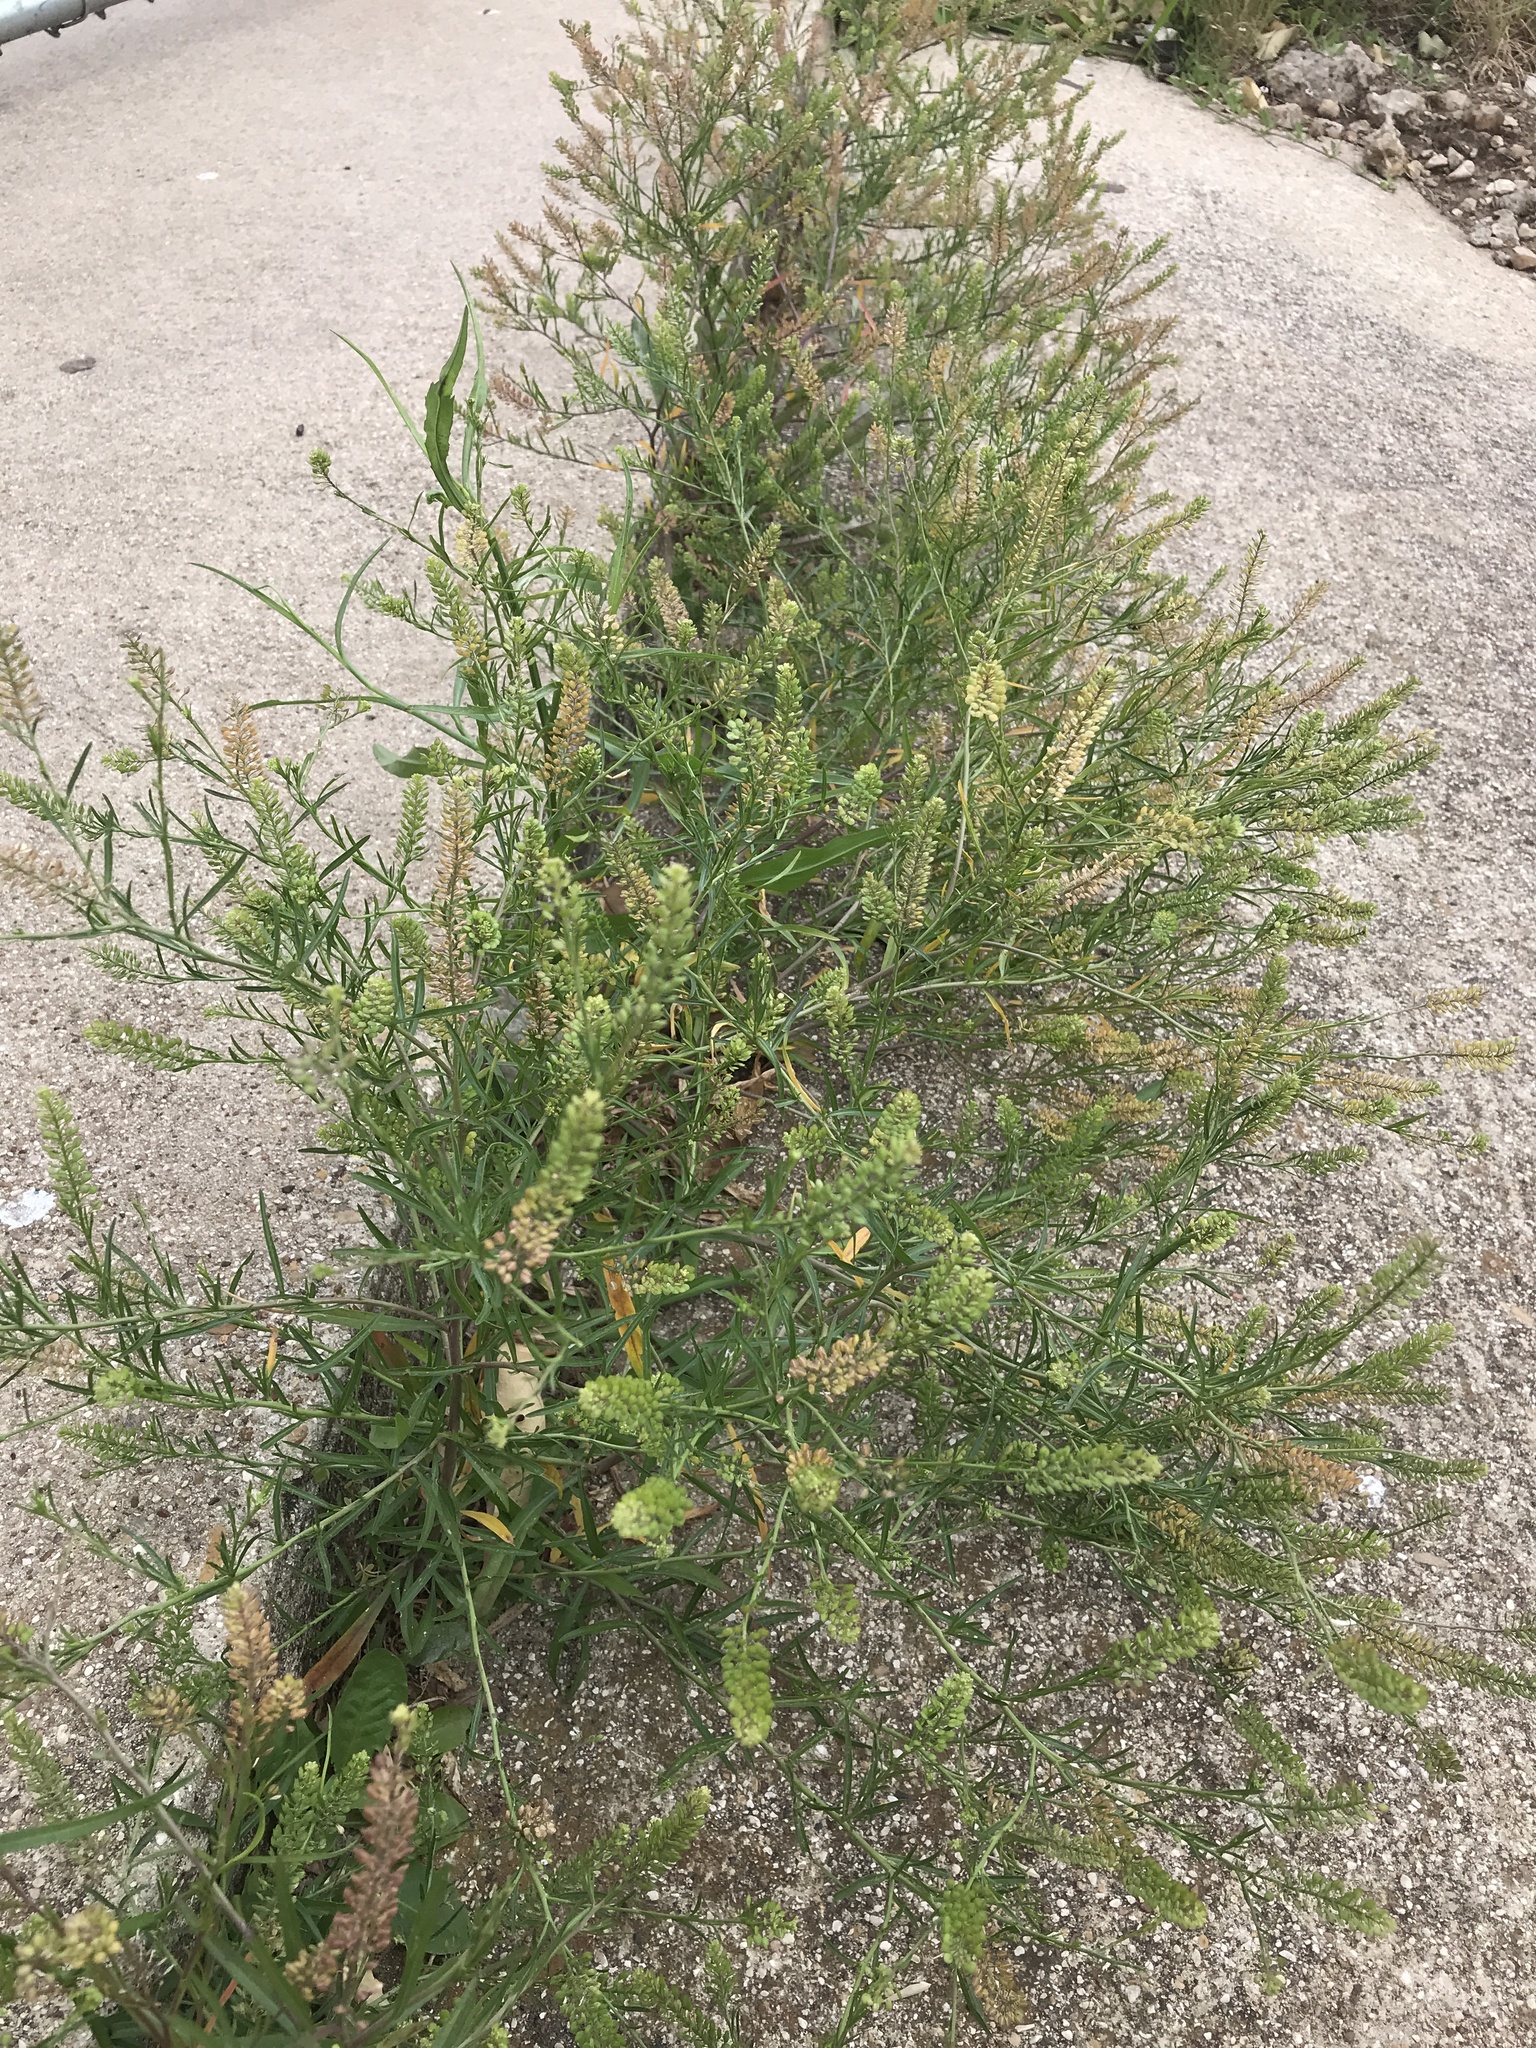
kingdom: Plantae
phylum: Tracheophyta
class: Magnoliopsida
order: Brassicales
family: Brassicaceae
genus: Lepidium
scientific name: Lepidium virginicum
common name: Least pepperwort
